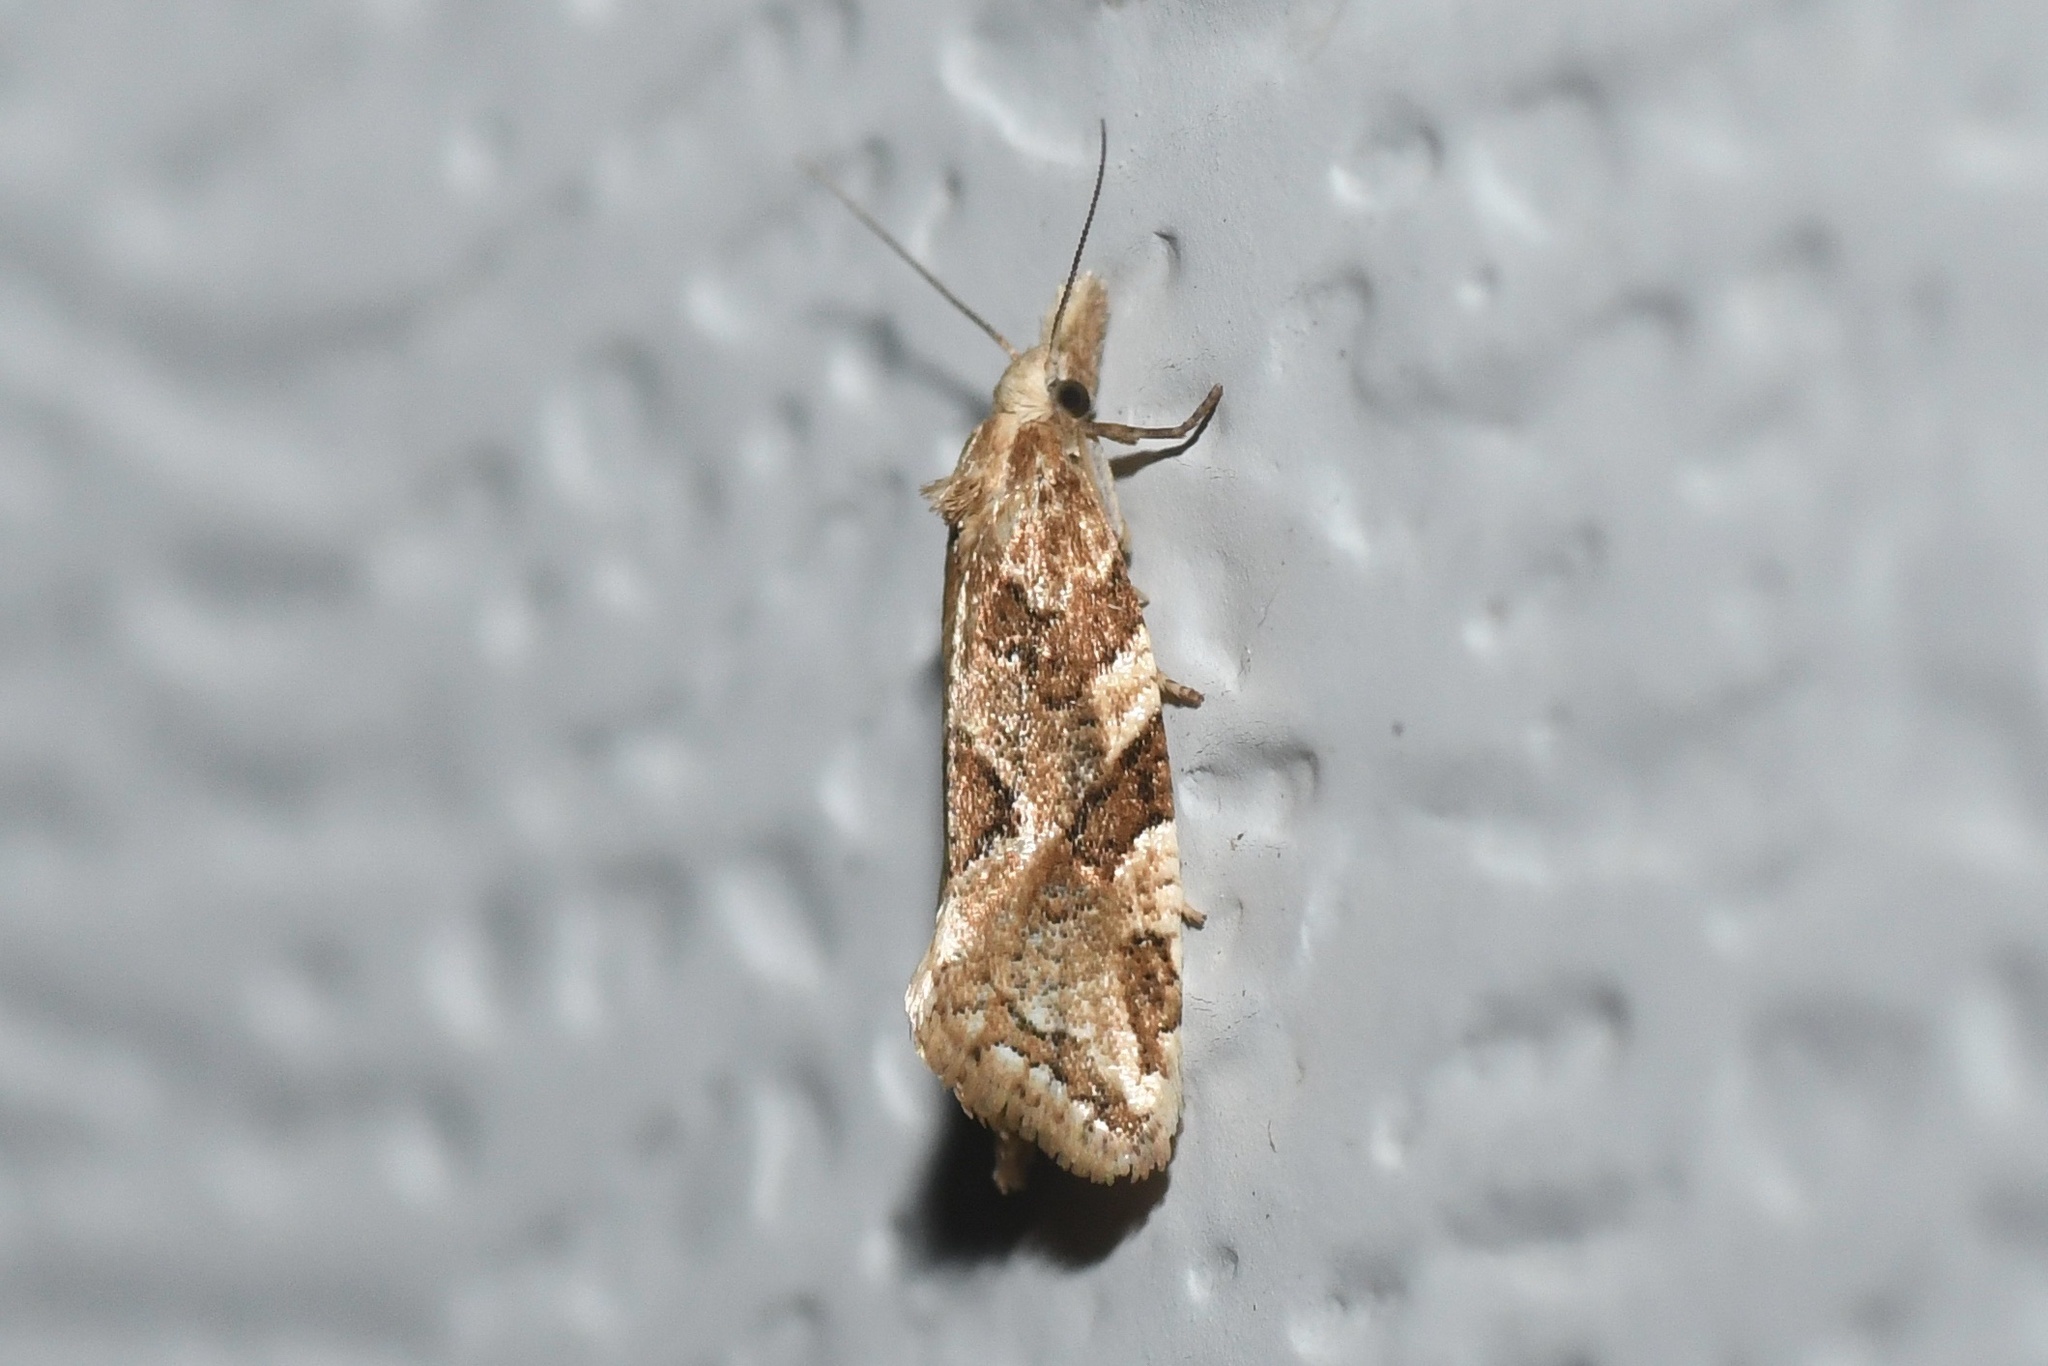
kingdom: Animalia
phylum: Arthropoda
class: Insecta
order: Lepidoptera
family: Tortricidae
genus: Aethes
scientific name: Aethes sexdentata
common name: Six-toothed aethes
